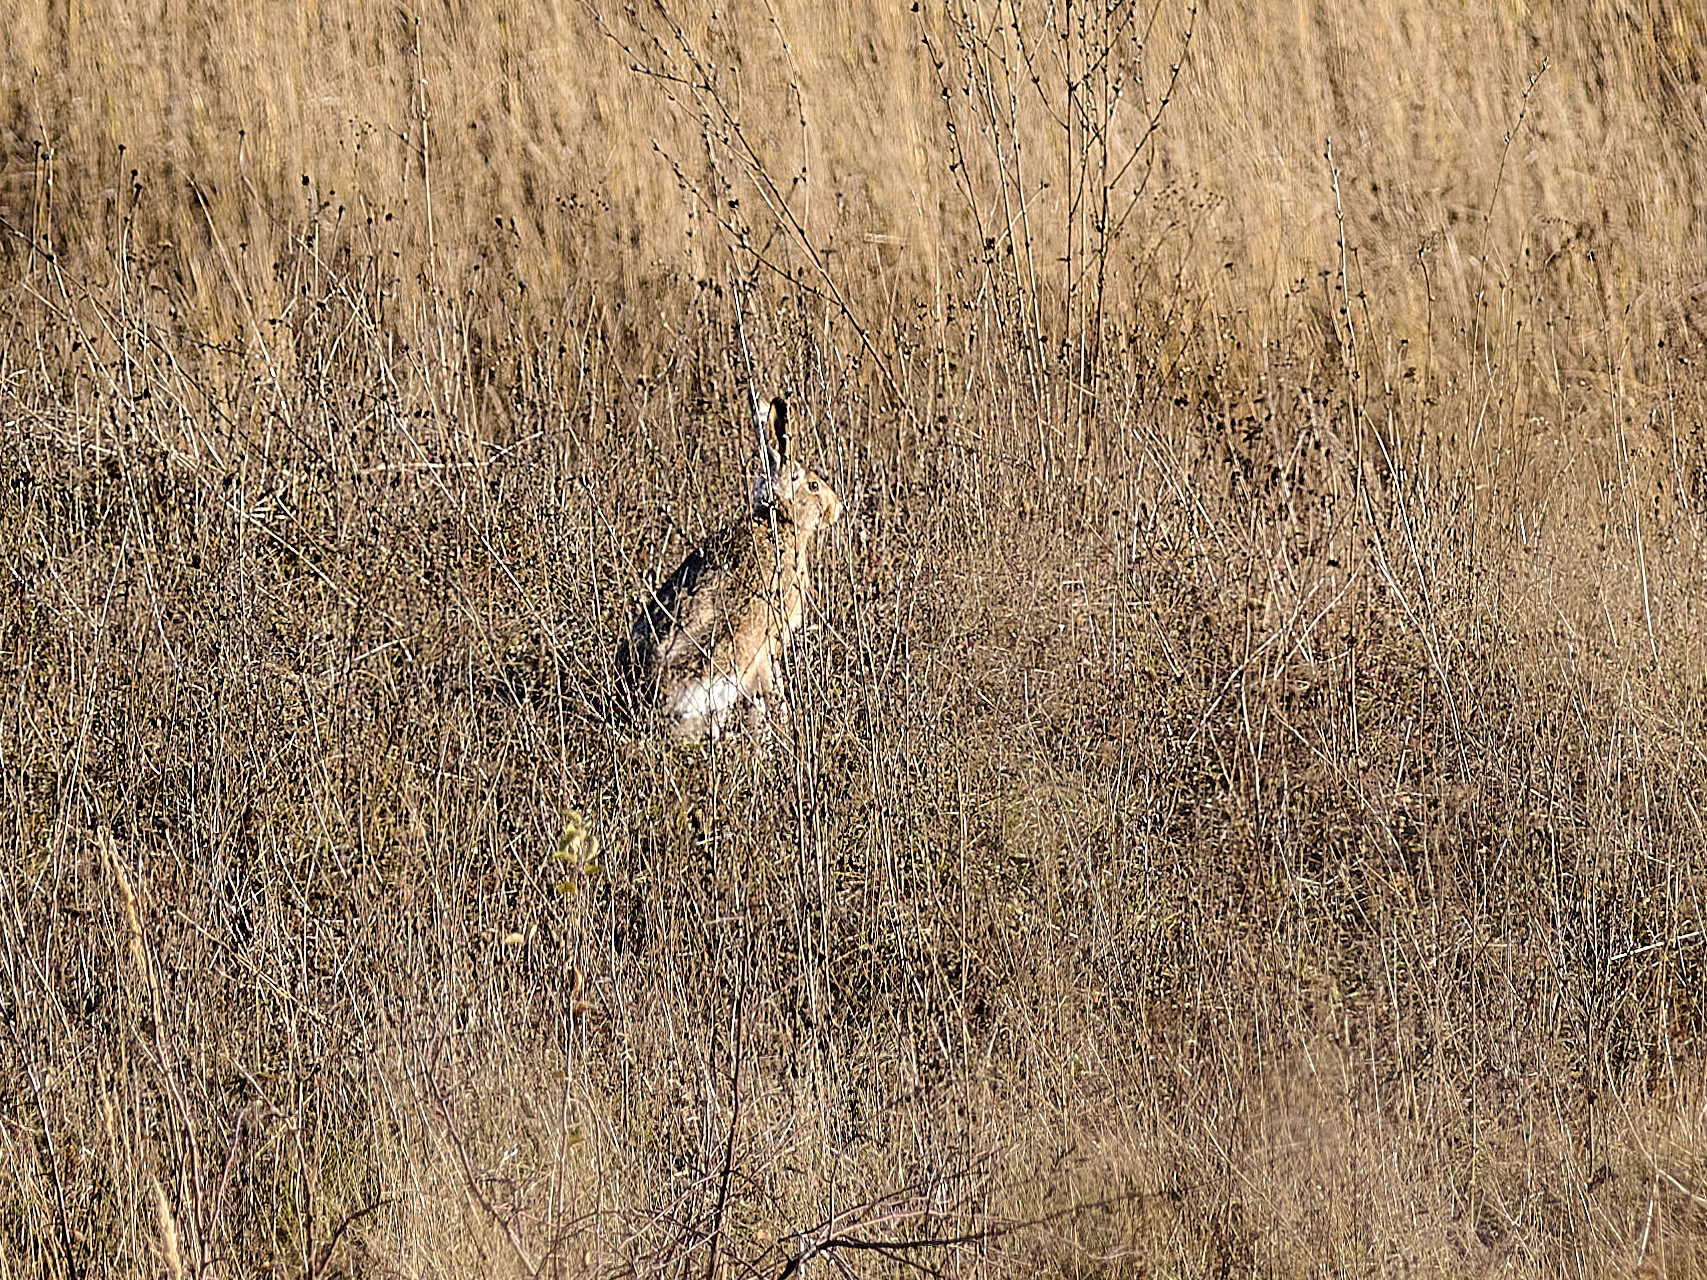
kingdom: Animalia
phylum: Chordata
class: Mammalia
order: Lagomorpha
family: Leporidae
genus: Lepus
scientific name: Lepus europaeus
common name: European hare
